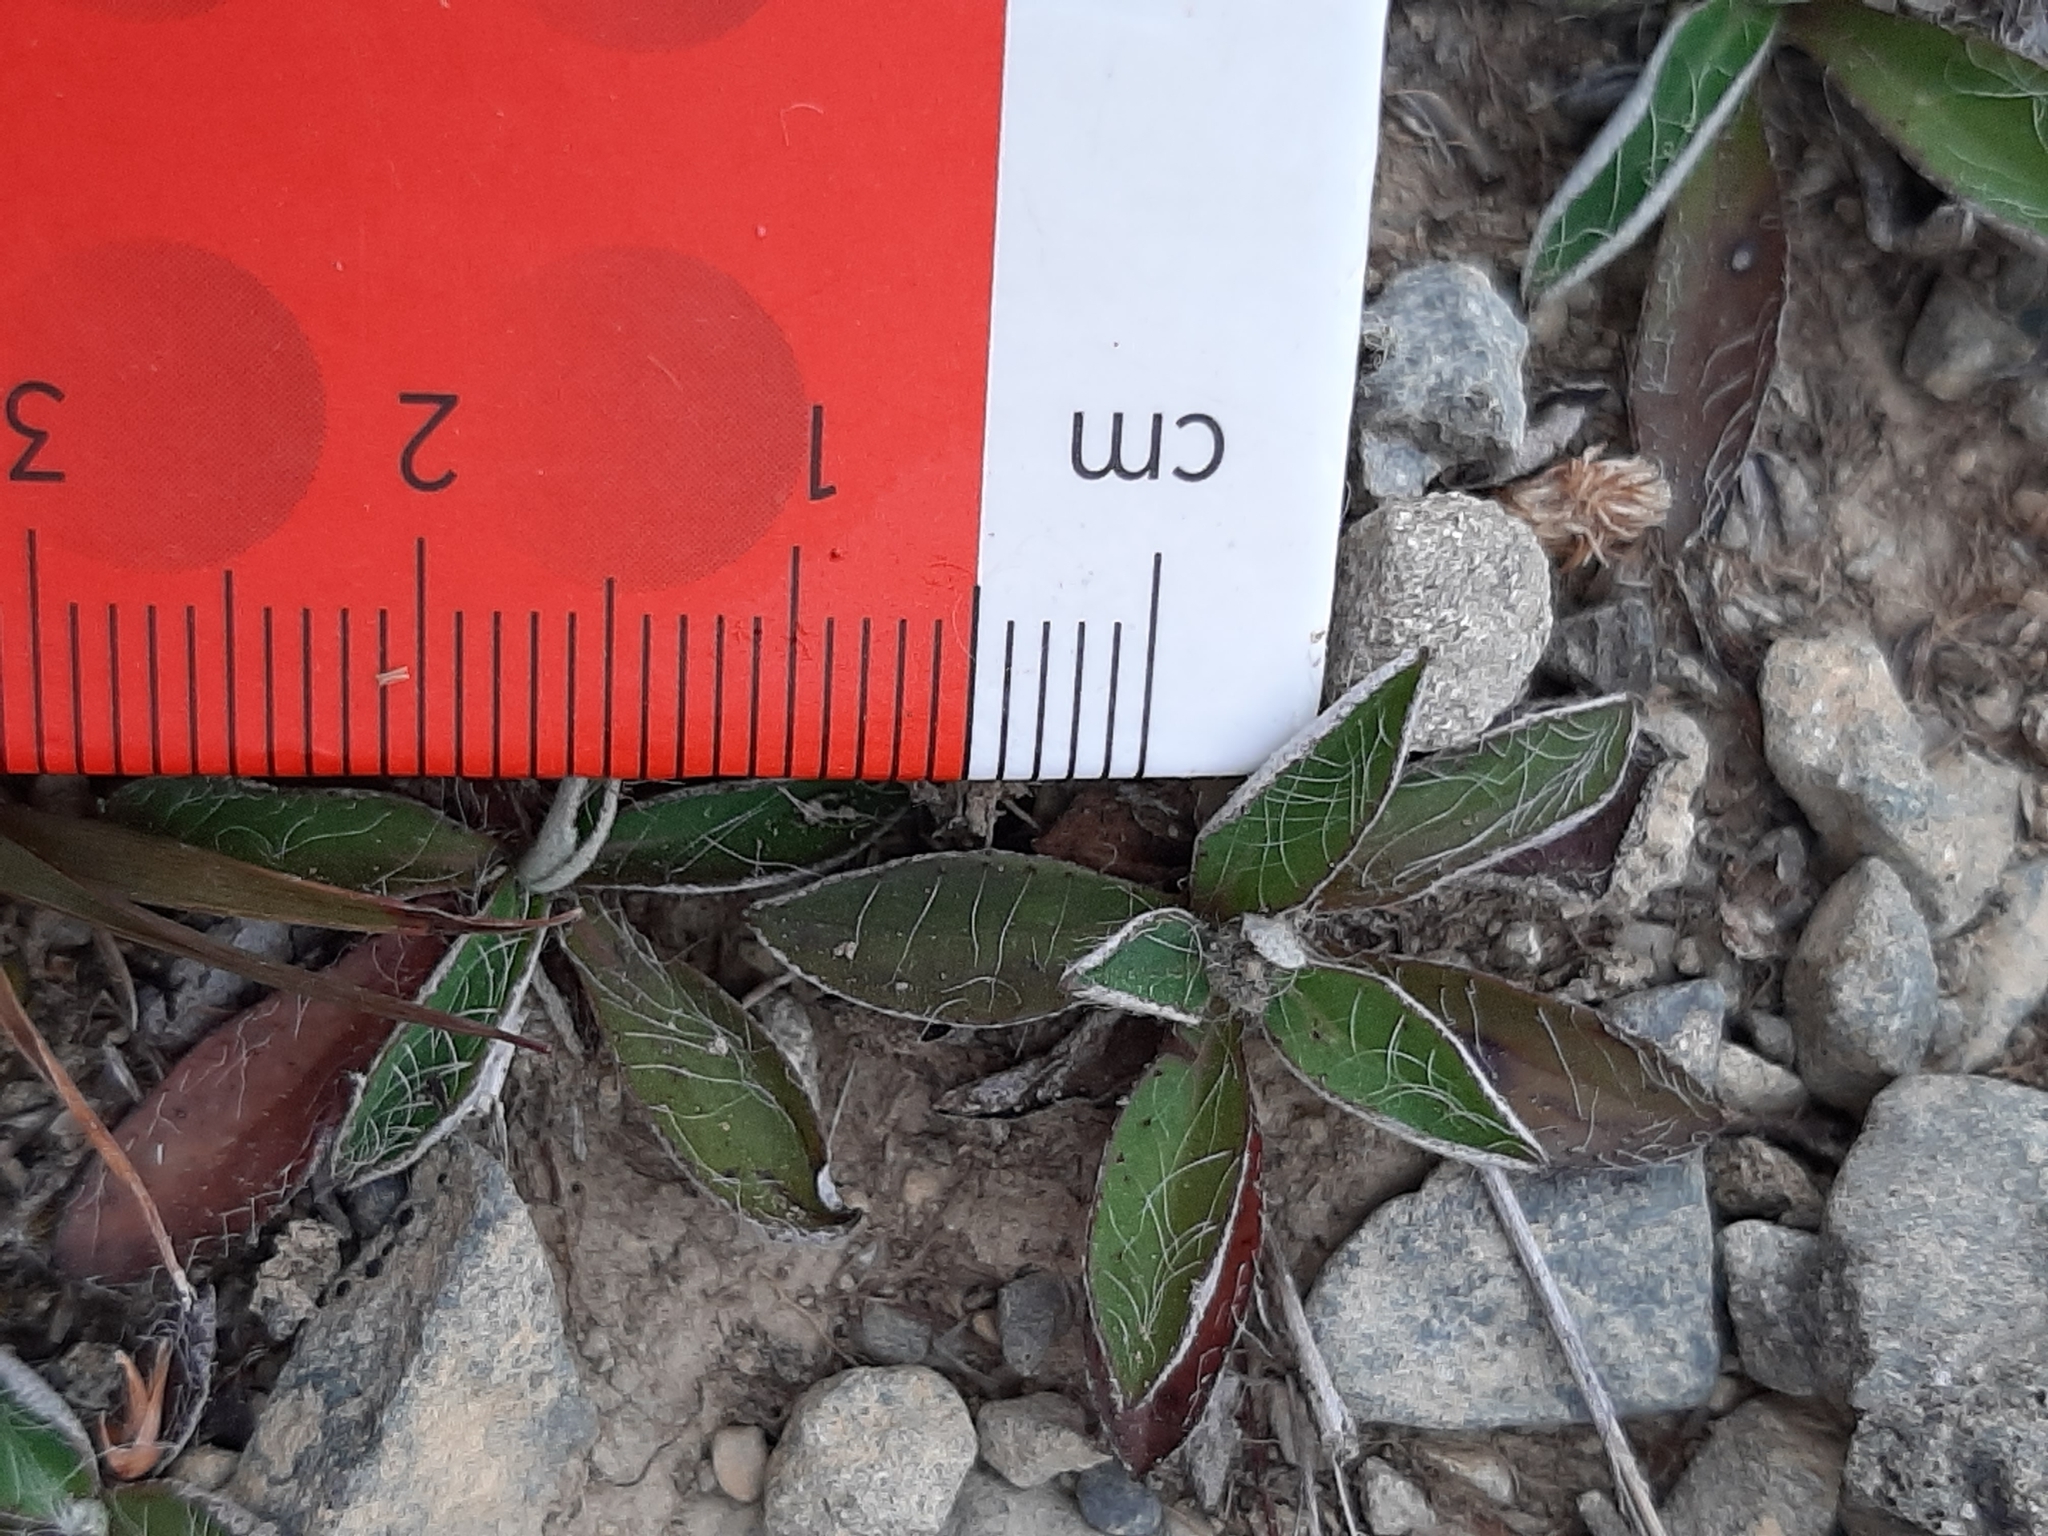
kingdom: Plantae
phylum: Tracheophyta
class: Magnoliopsida
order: Asterales
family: Asteraceae
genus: Pilosella
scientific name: Pilosella officinarum
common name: Mouse-ear hawkweed
